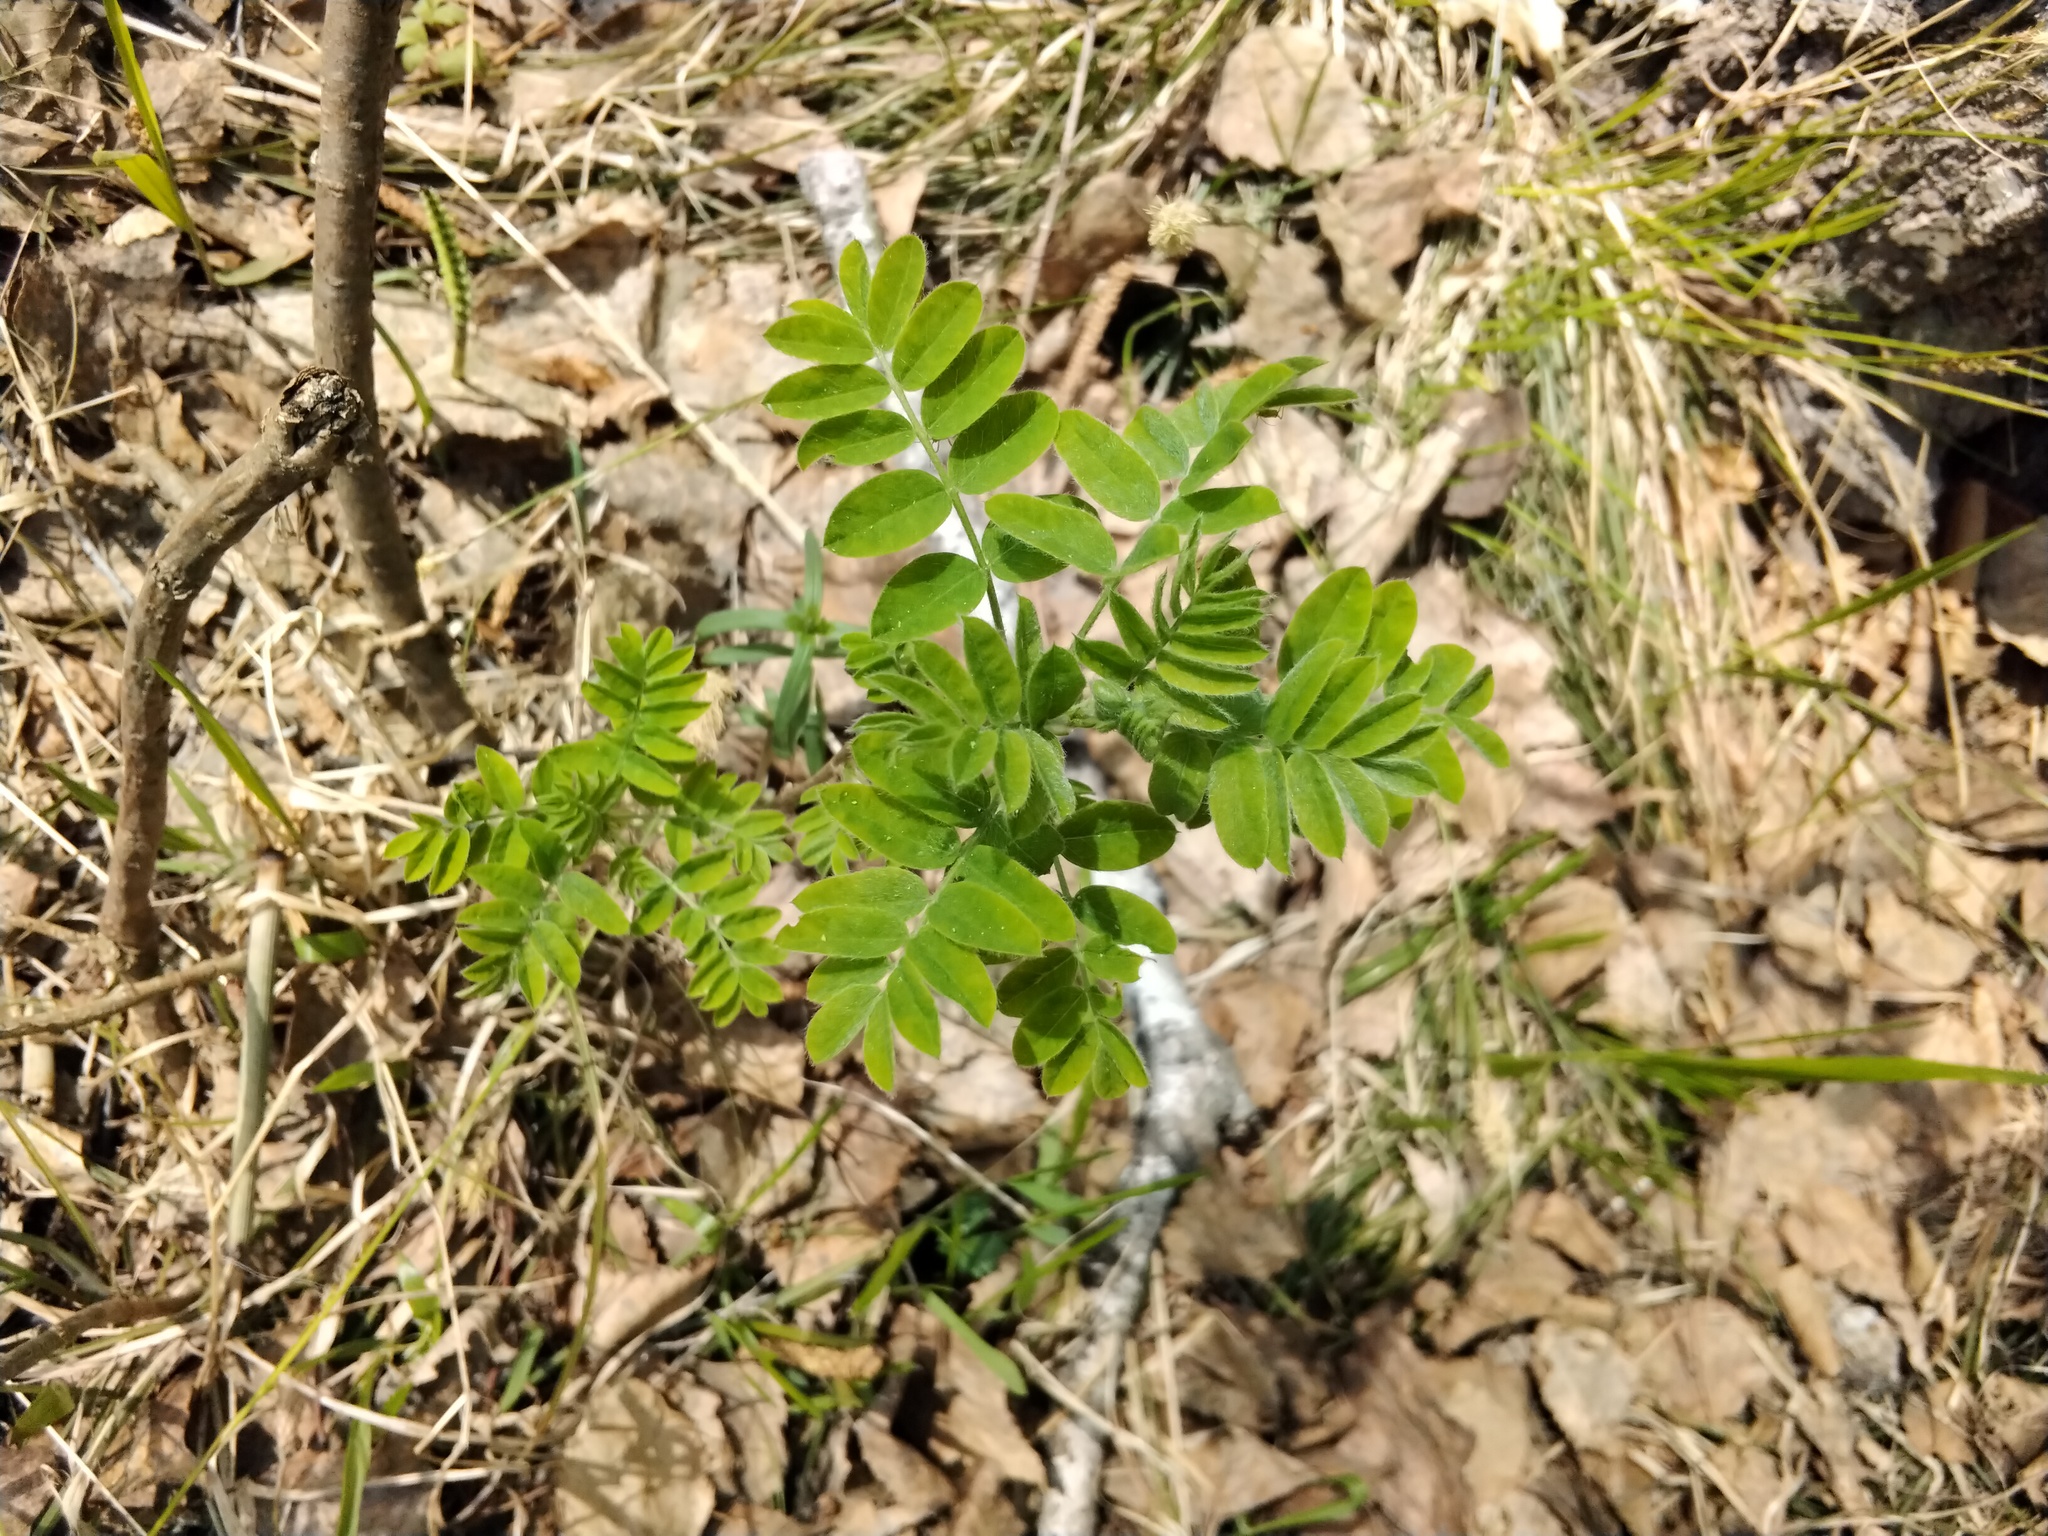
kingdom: Plantae
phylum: Tracheophyta
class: Magnoliopsida
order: Fabales
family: Fabaceae
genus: Caragana
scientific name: Caragana arborescens
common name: Siberian peashrub
